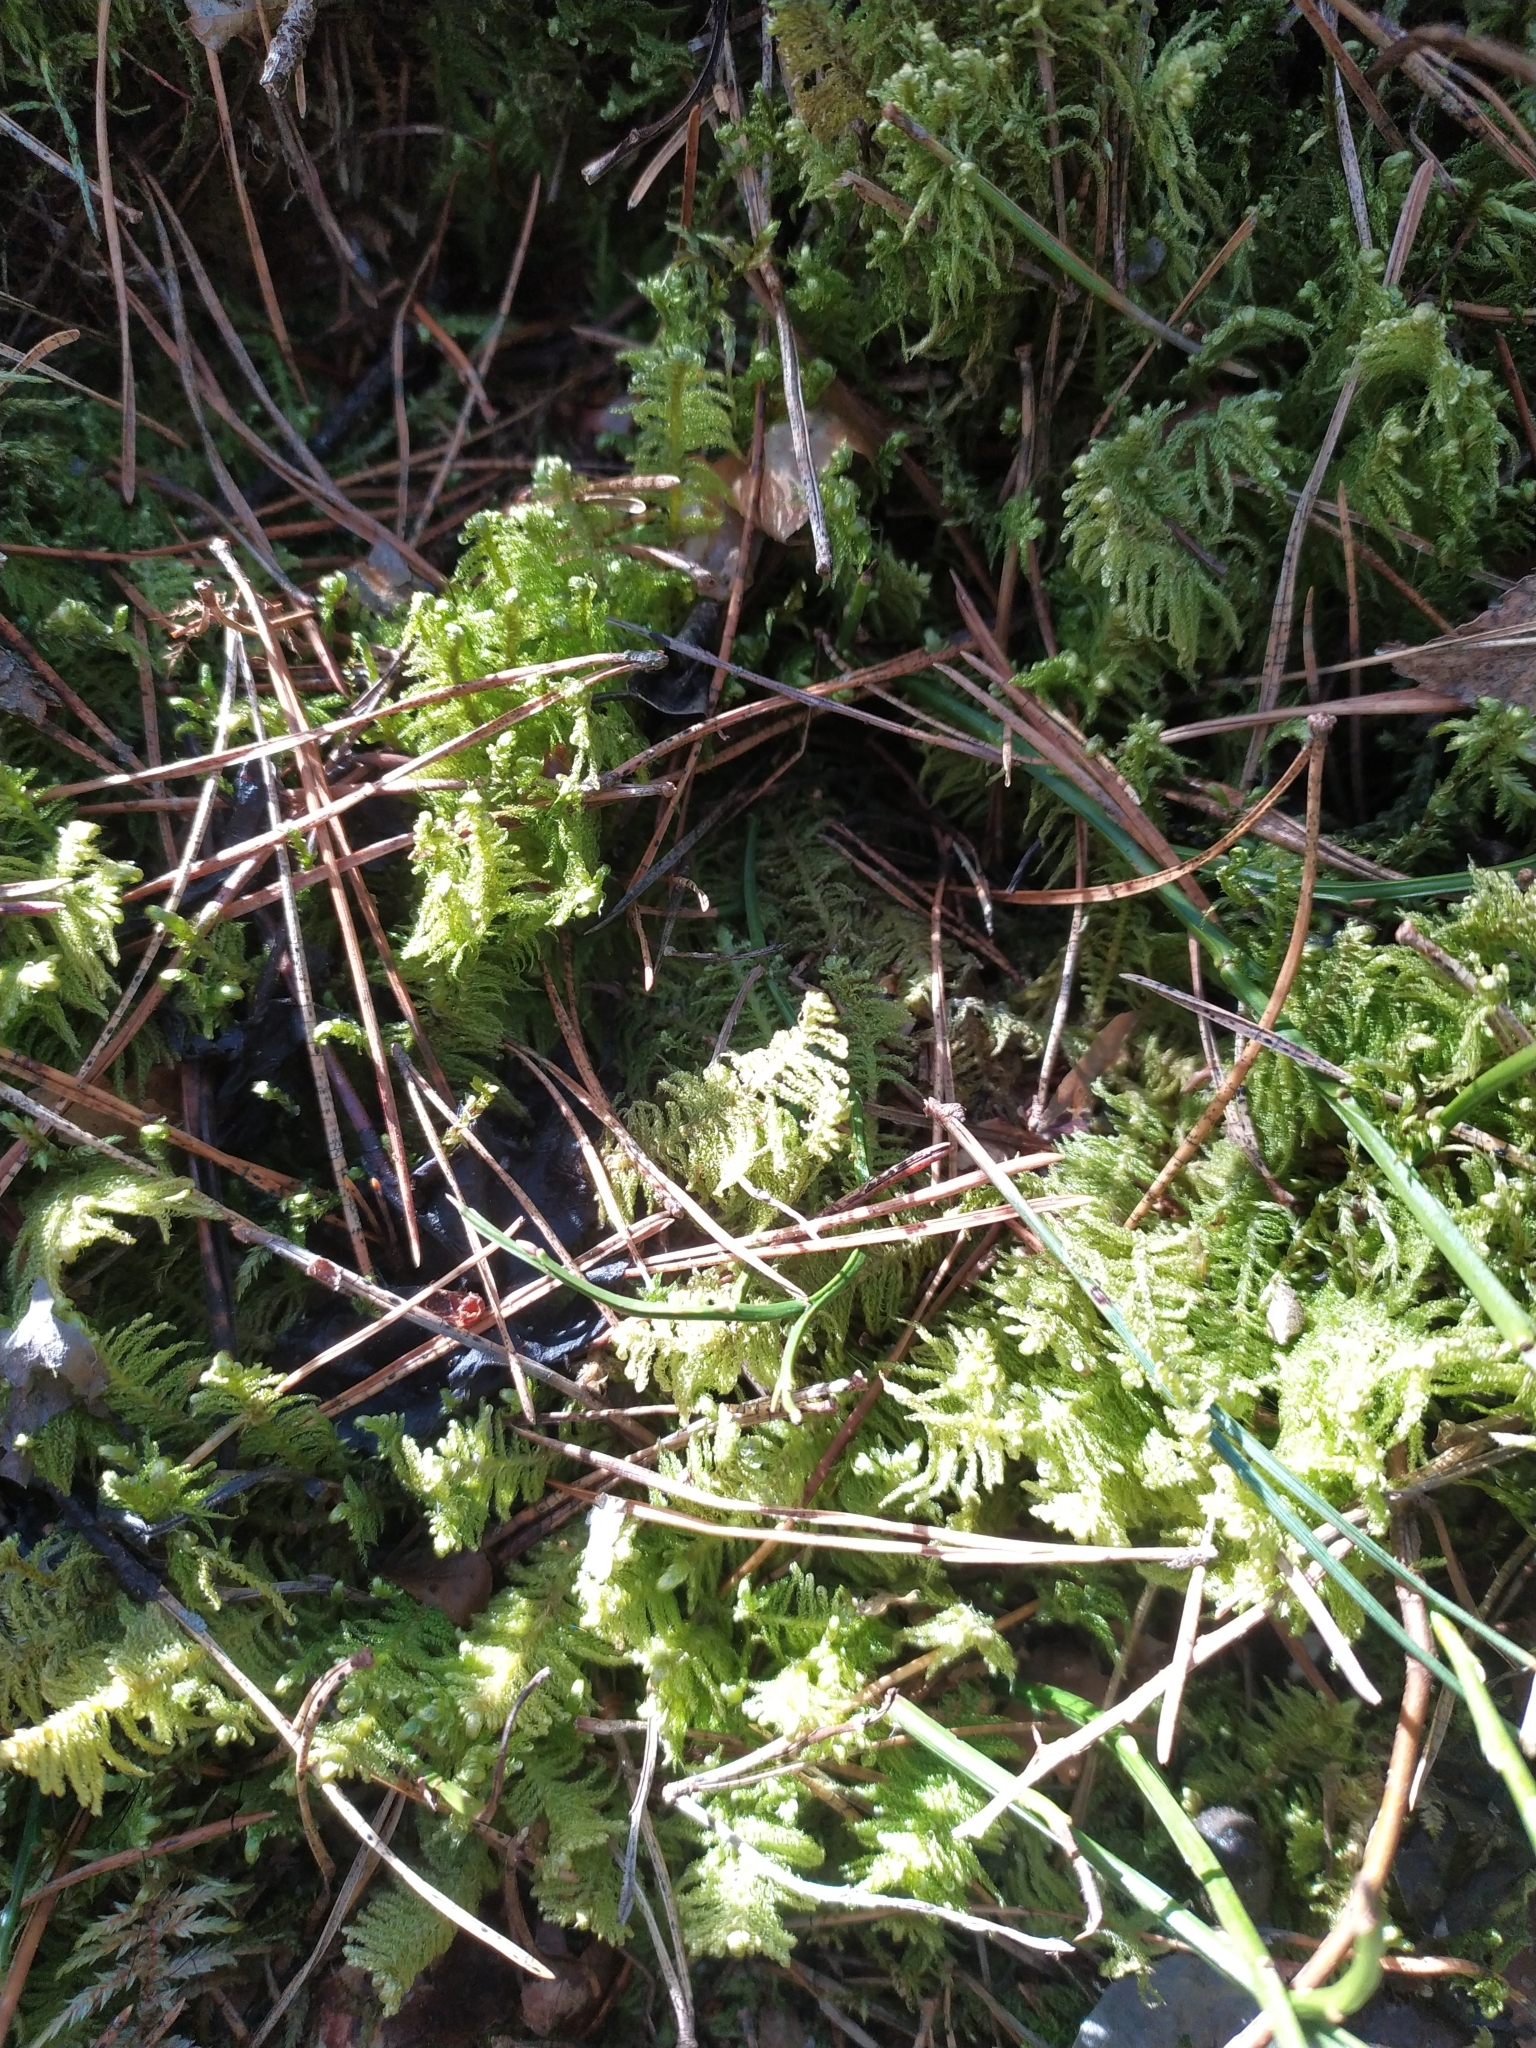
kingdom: Plantae
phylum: Bryophyta
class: Bryopsida
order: Hypnales
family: Pylaisiaceae
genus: Ptilium
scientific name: Ptilium crista-castrensis
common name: Knight's plume moss
